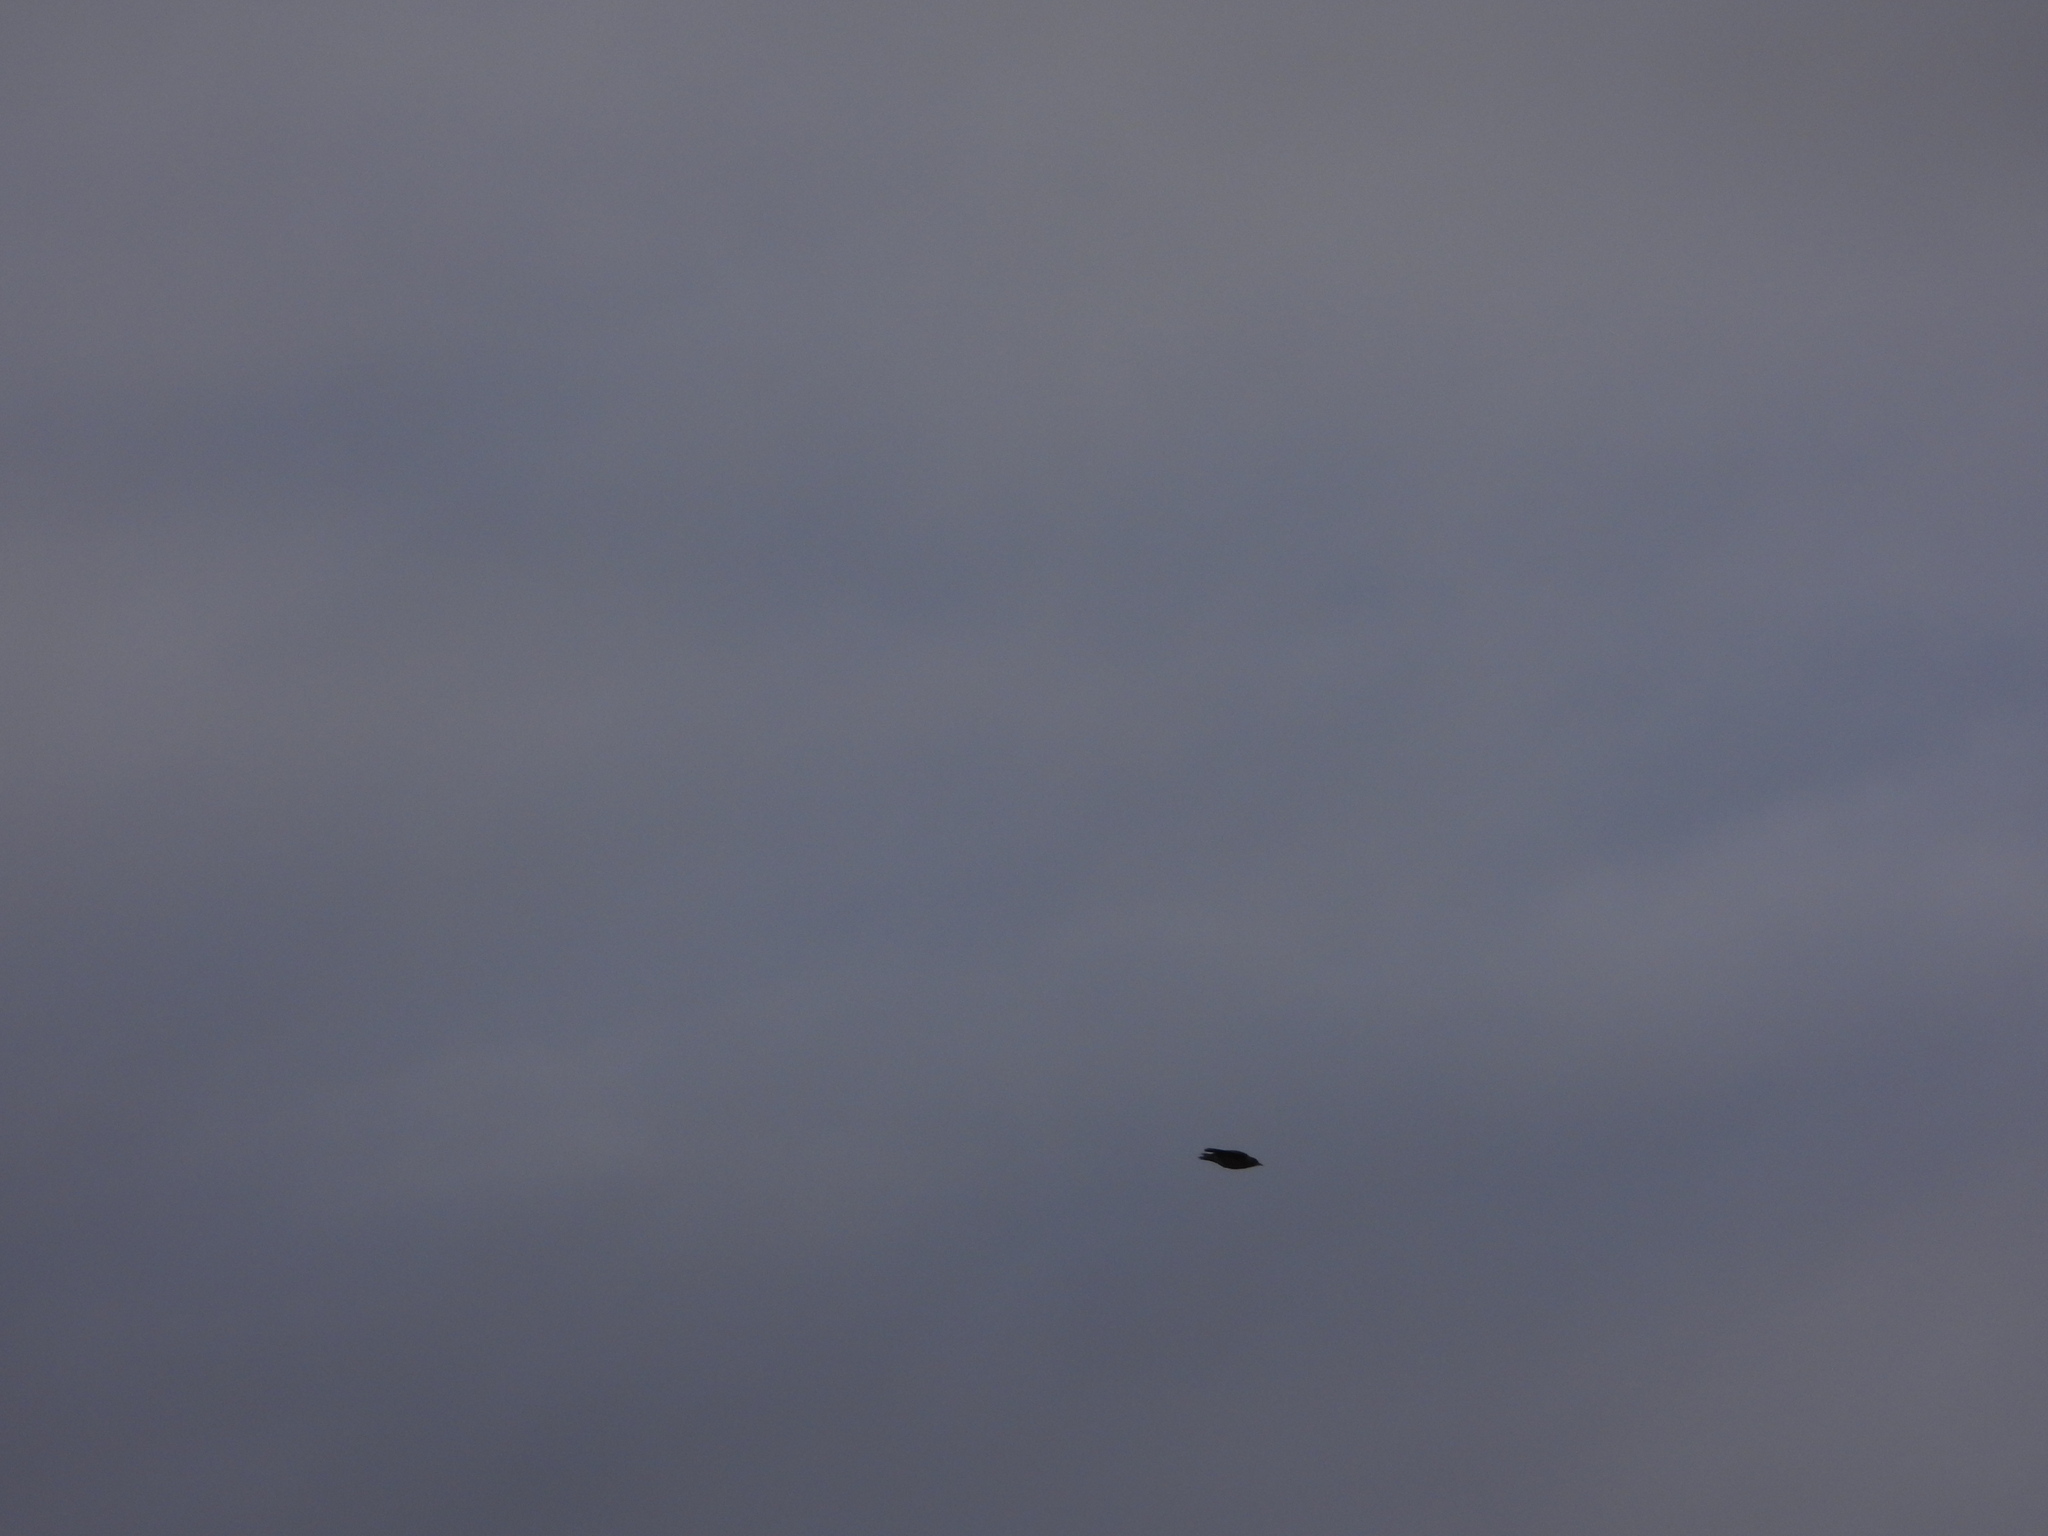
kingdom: Animalia
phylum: Chordata
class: Aves
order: Passeriformes
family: Turdidae
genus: Turdus
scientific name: Turdus migratorius
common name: American robin
